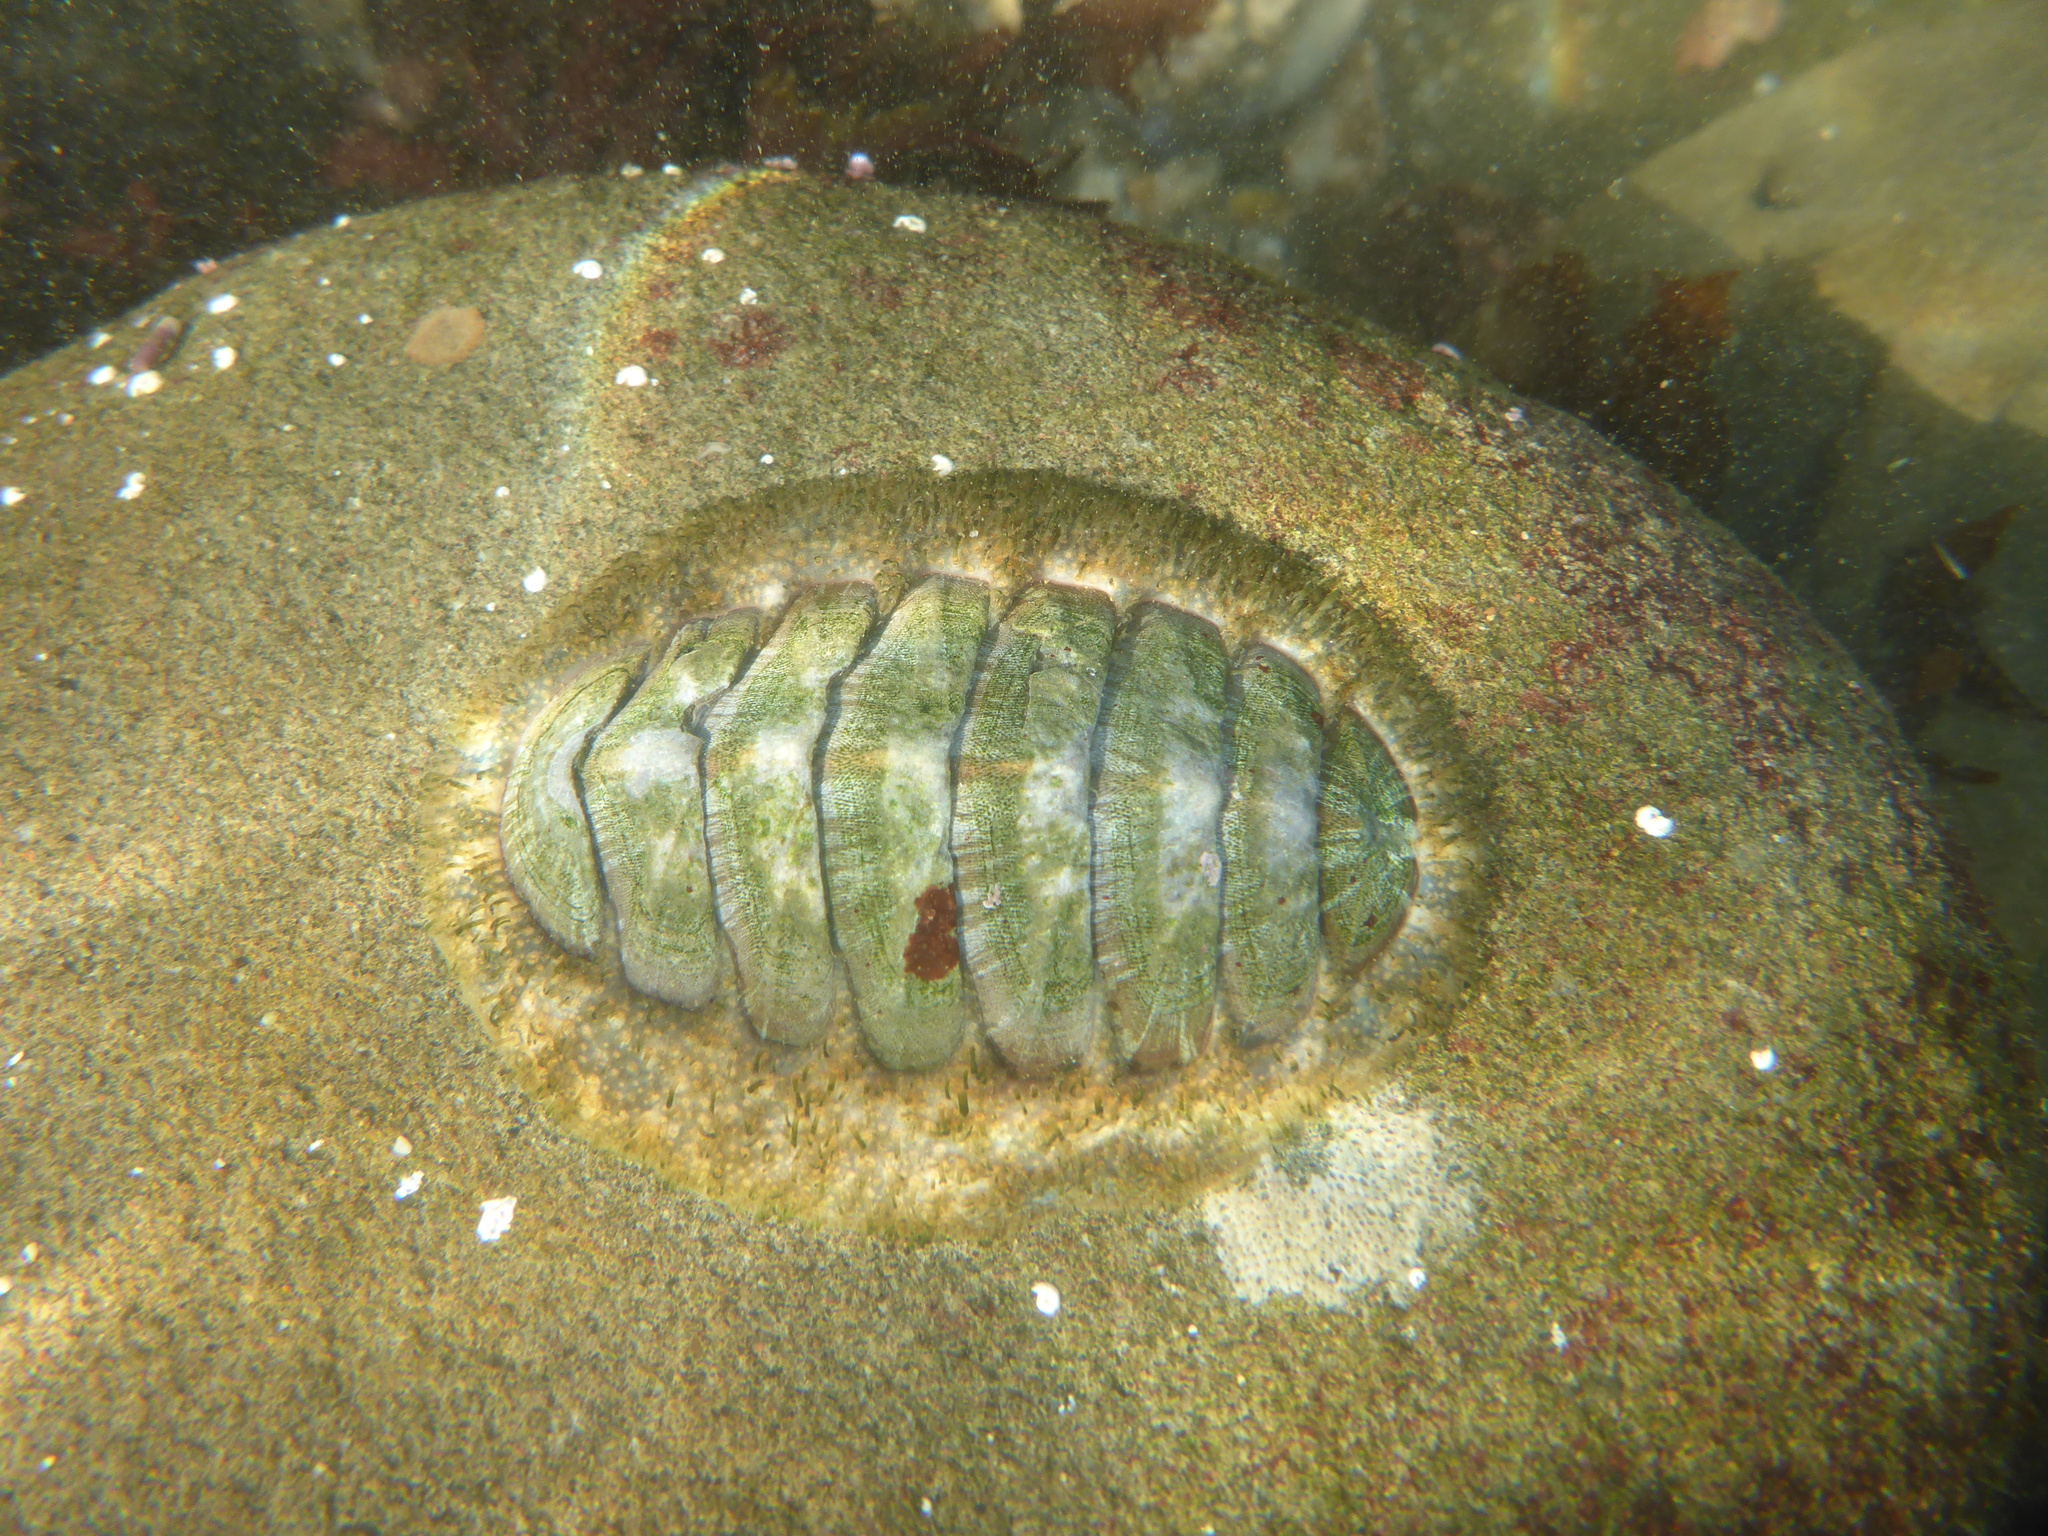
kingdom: Animalia
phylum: Mollusca
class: Polyplacophora
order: Chitonida
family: Mopaliidae
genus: Mopalia
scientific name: Mopalia lignosa
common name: Woody chiton
